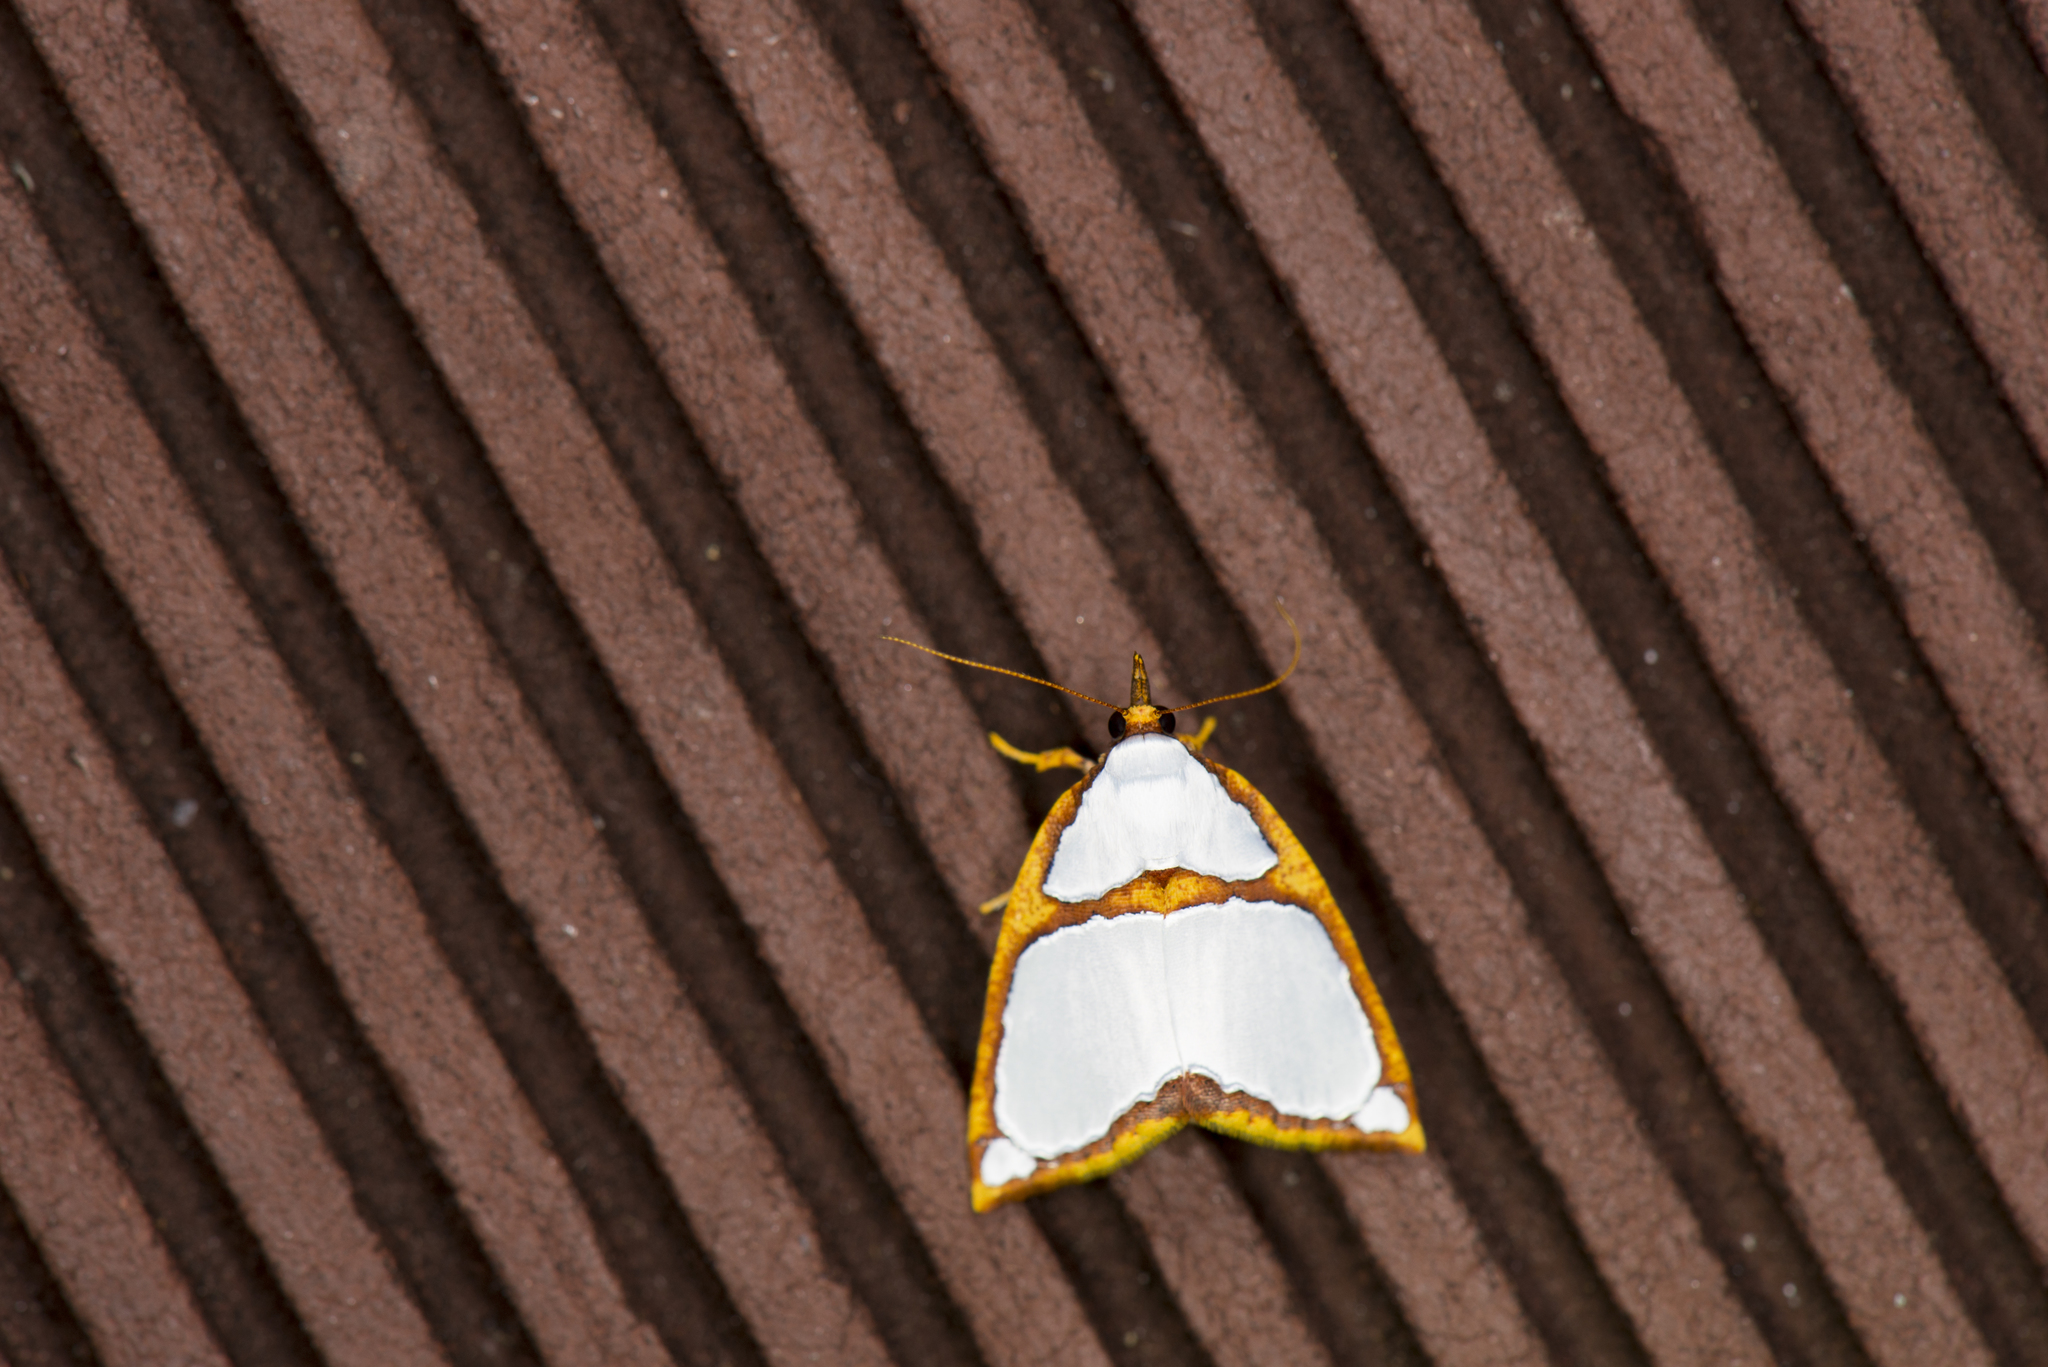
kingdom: Animalia
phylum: Arthropoda
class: Insecta
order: Lepidoptera
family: Nolidae
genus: Titulcia
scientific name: Titulcia confictella
